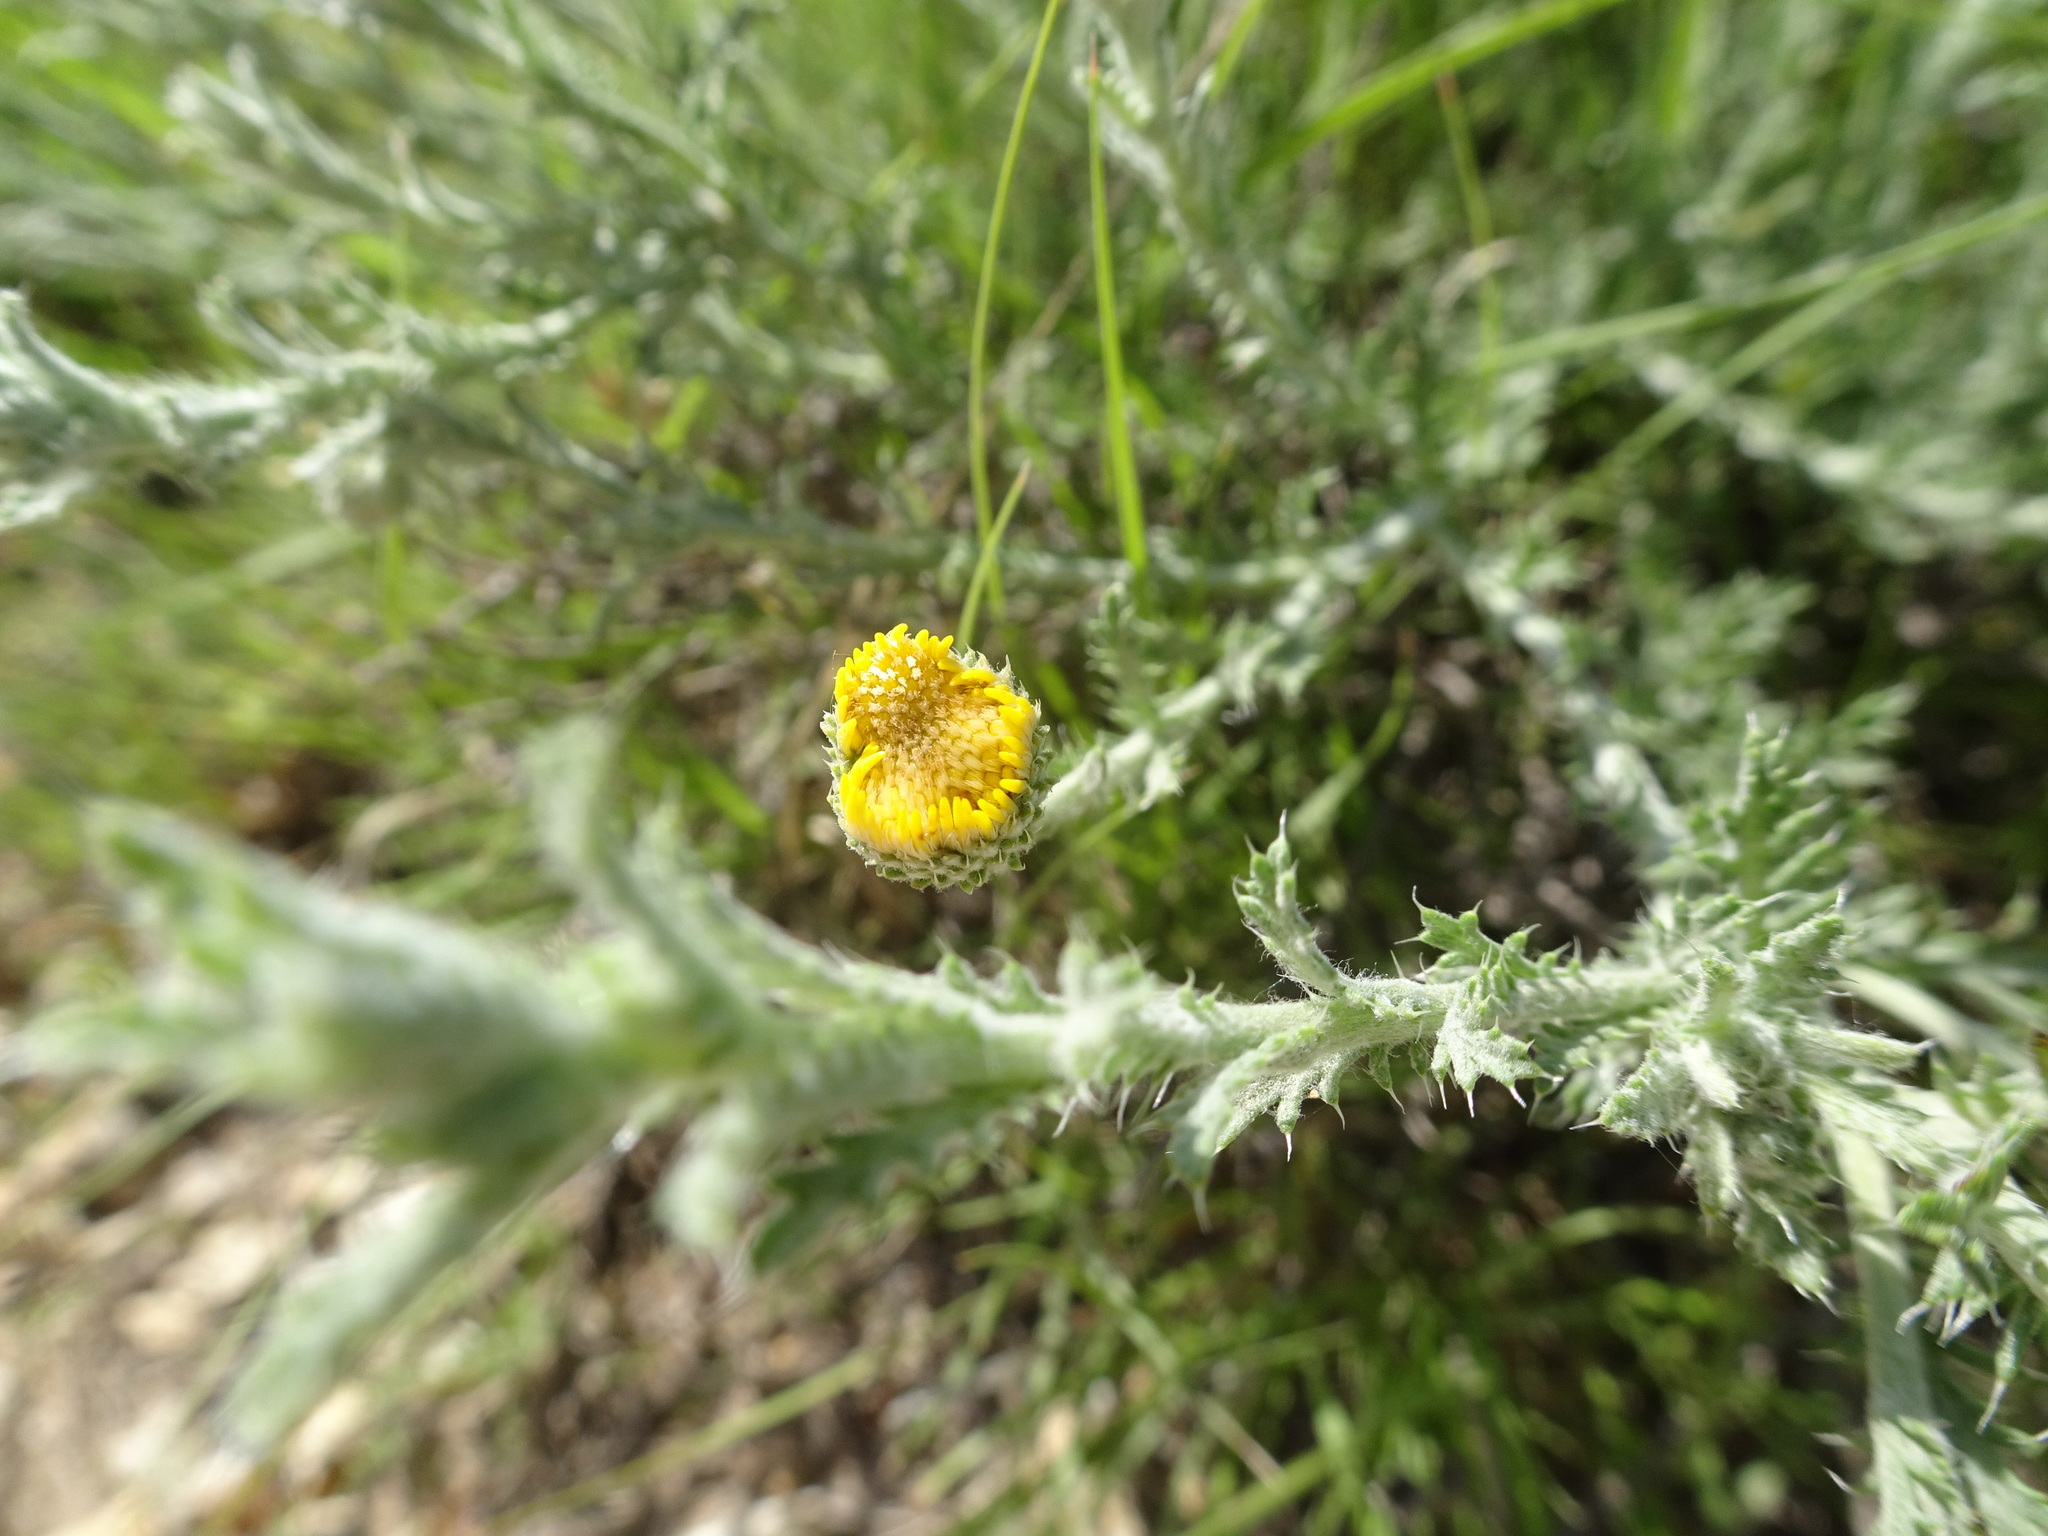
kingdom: Plantae
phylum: Tracheophyta
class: Magnoliopsida
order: Asterales
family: Asteraceae
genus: Xanthisma
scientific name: Xanthisma spinulosum
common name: Spiny goldenweed
